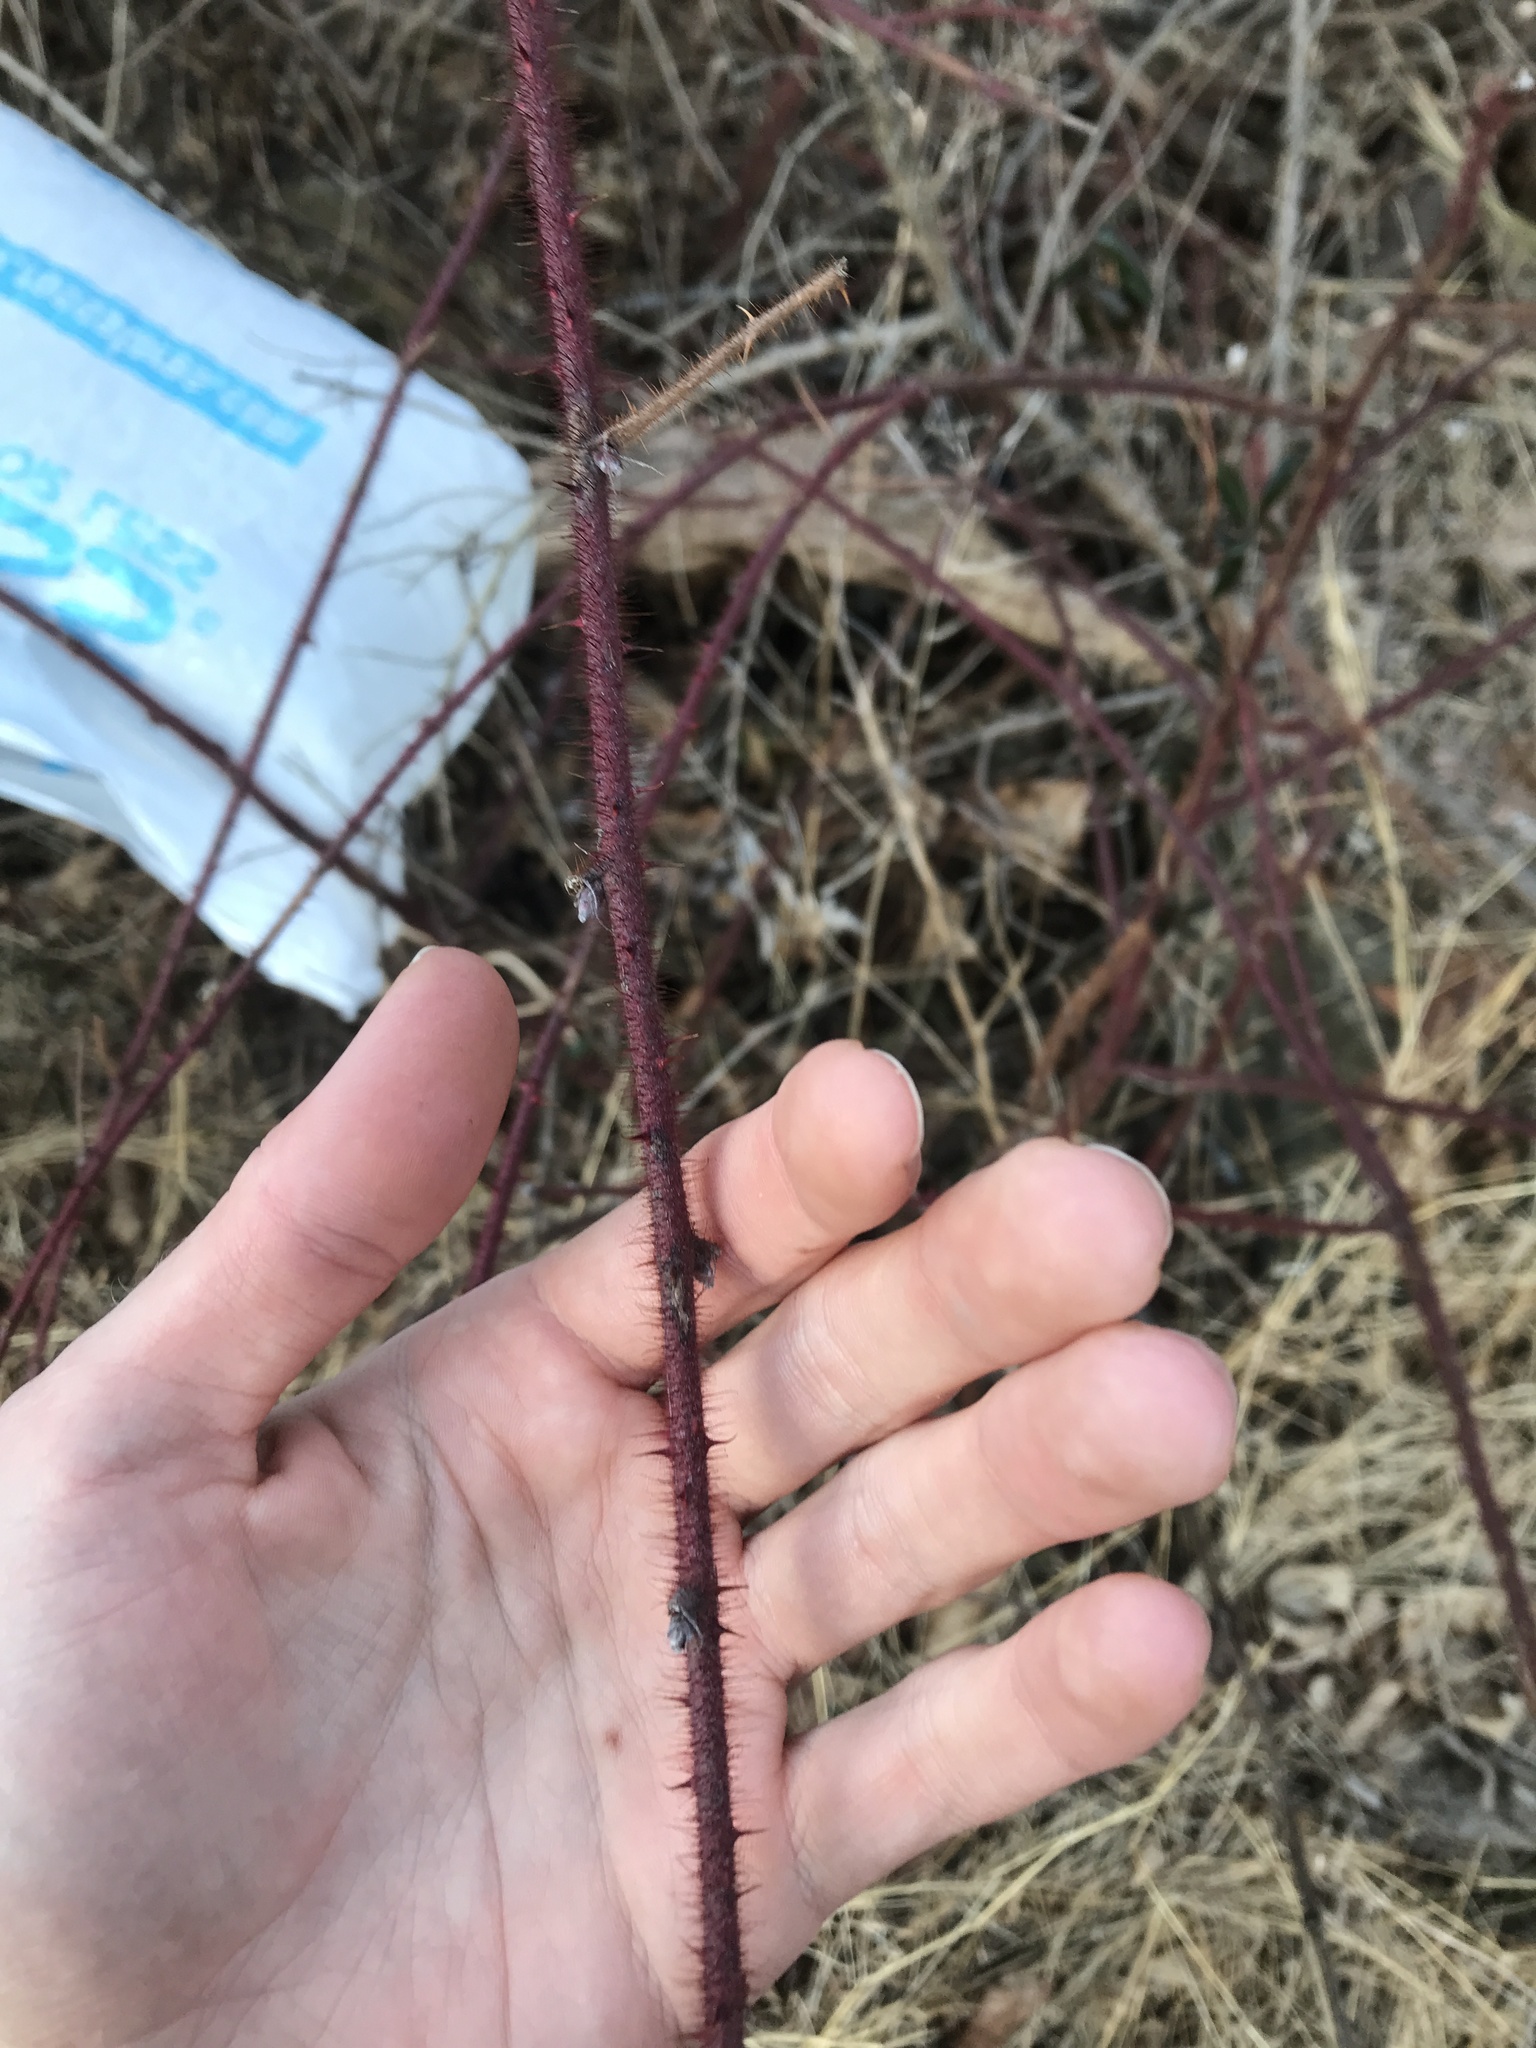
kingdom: Plantae
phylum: Tracheophyta
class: Magnoliopsida
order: Rosales
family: Rosaceae
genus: Rubus
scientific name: Rubus phoenicolasius
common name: Japanese wineberry
